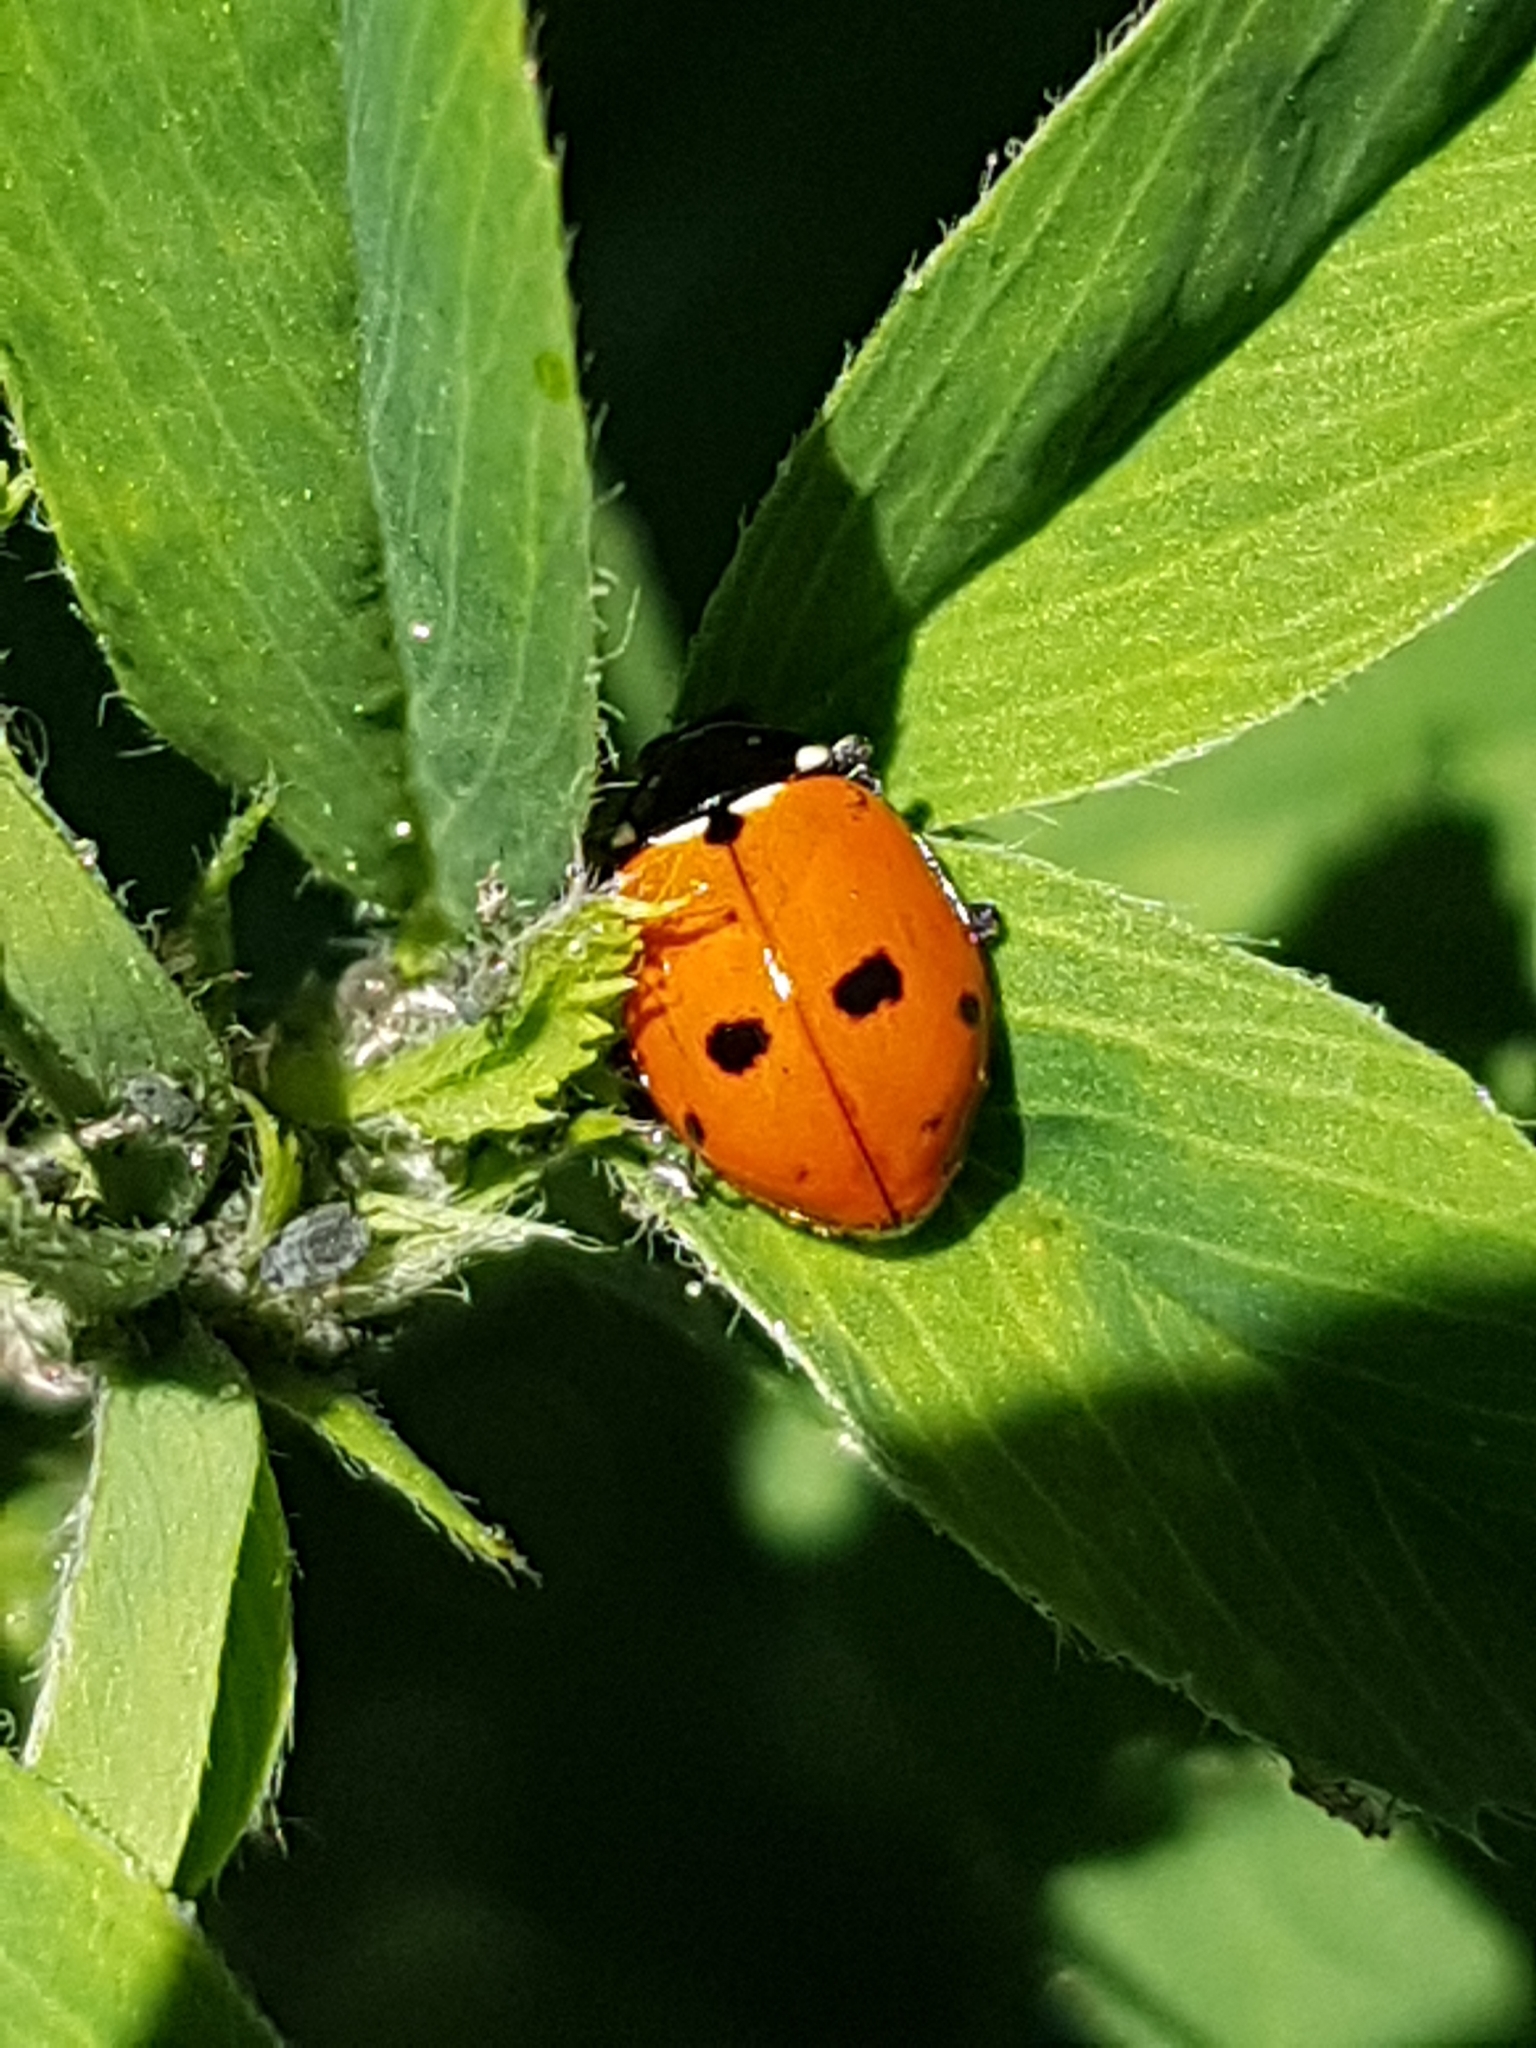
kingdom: Animalia
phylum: Arthropoda
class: Insecta
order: Coleoptera
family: Coccinellidae
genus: Hippodamia
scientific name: Hippodamia variegata
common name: Ladybird beetle
